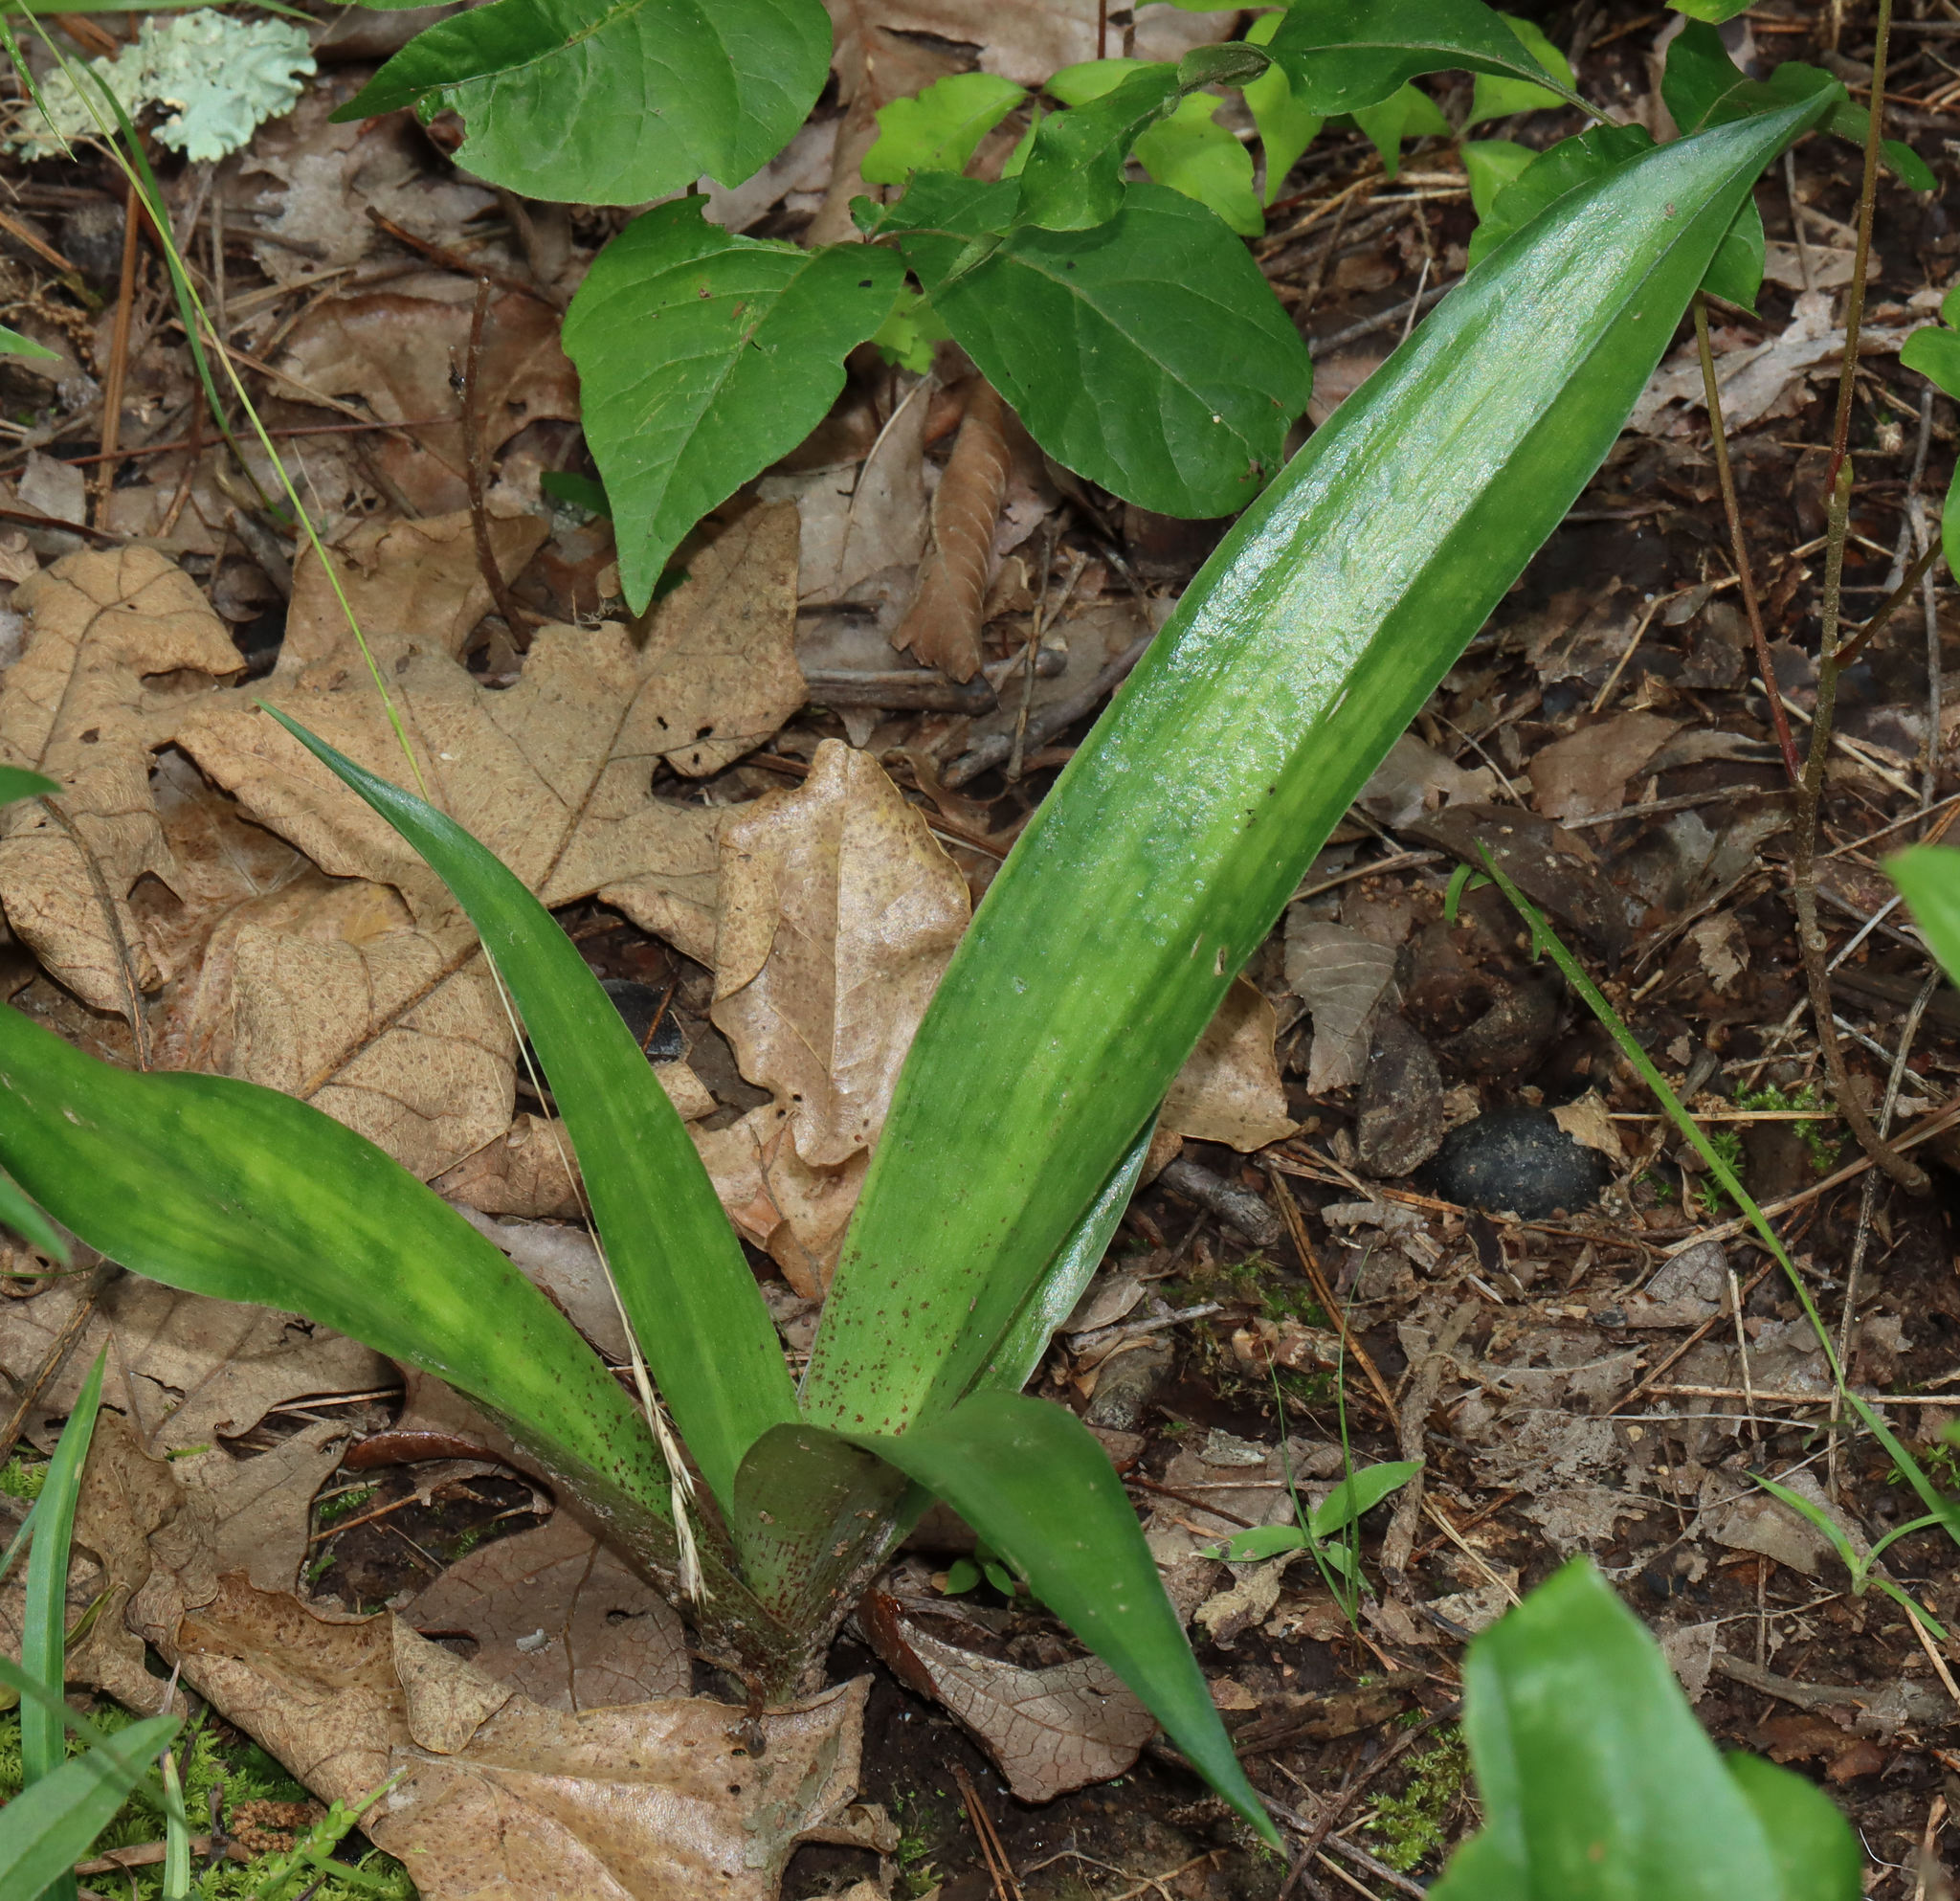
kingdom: Plantae
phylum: Tracheophyta
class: Liliopsida
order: Asparagales
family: Asparagaceae
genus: Agave
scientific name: Agave virginica
